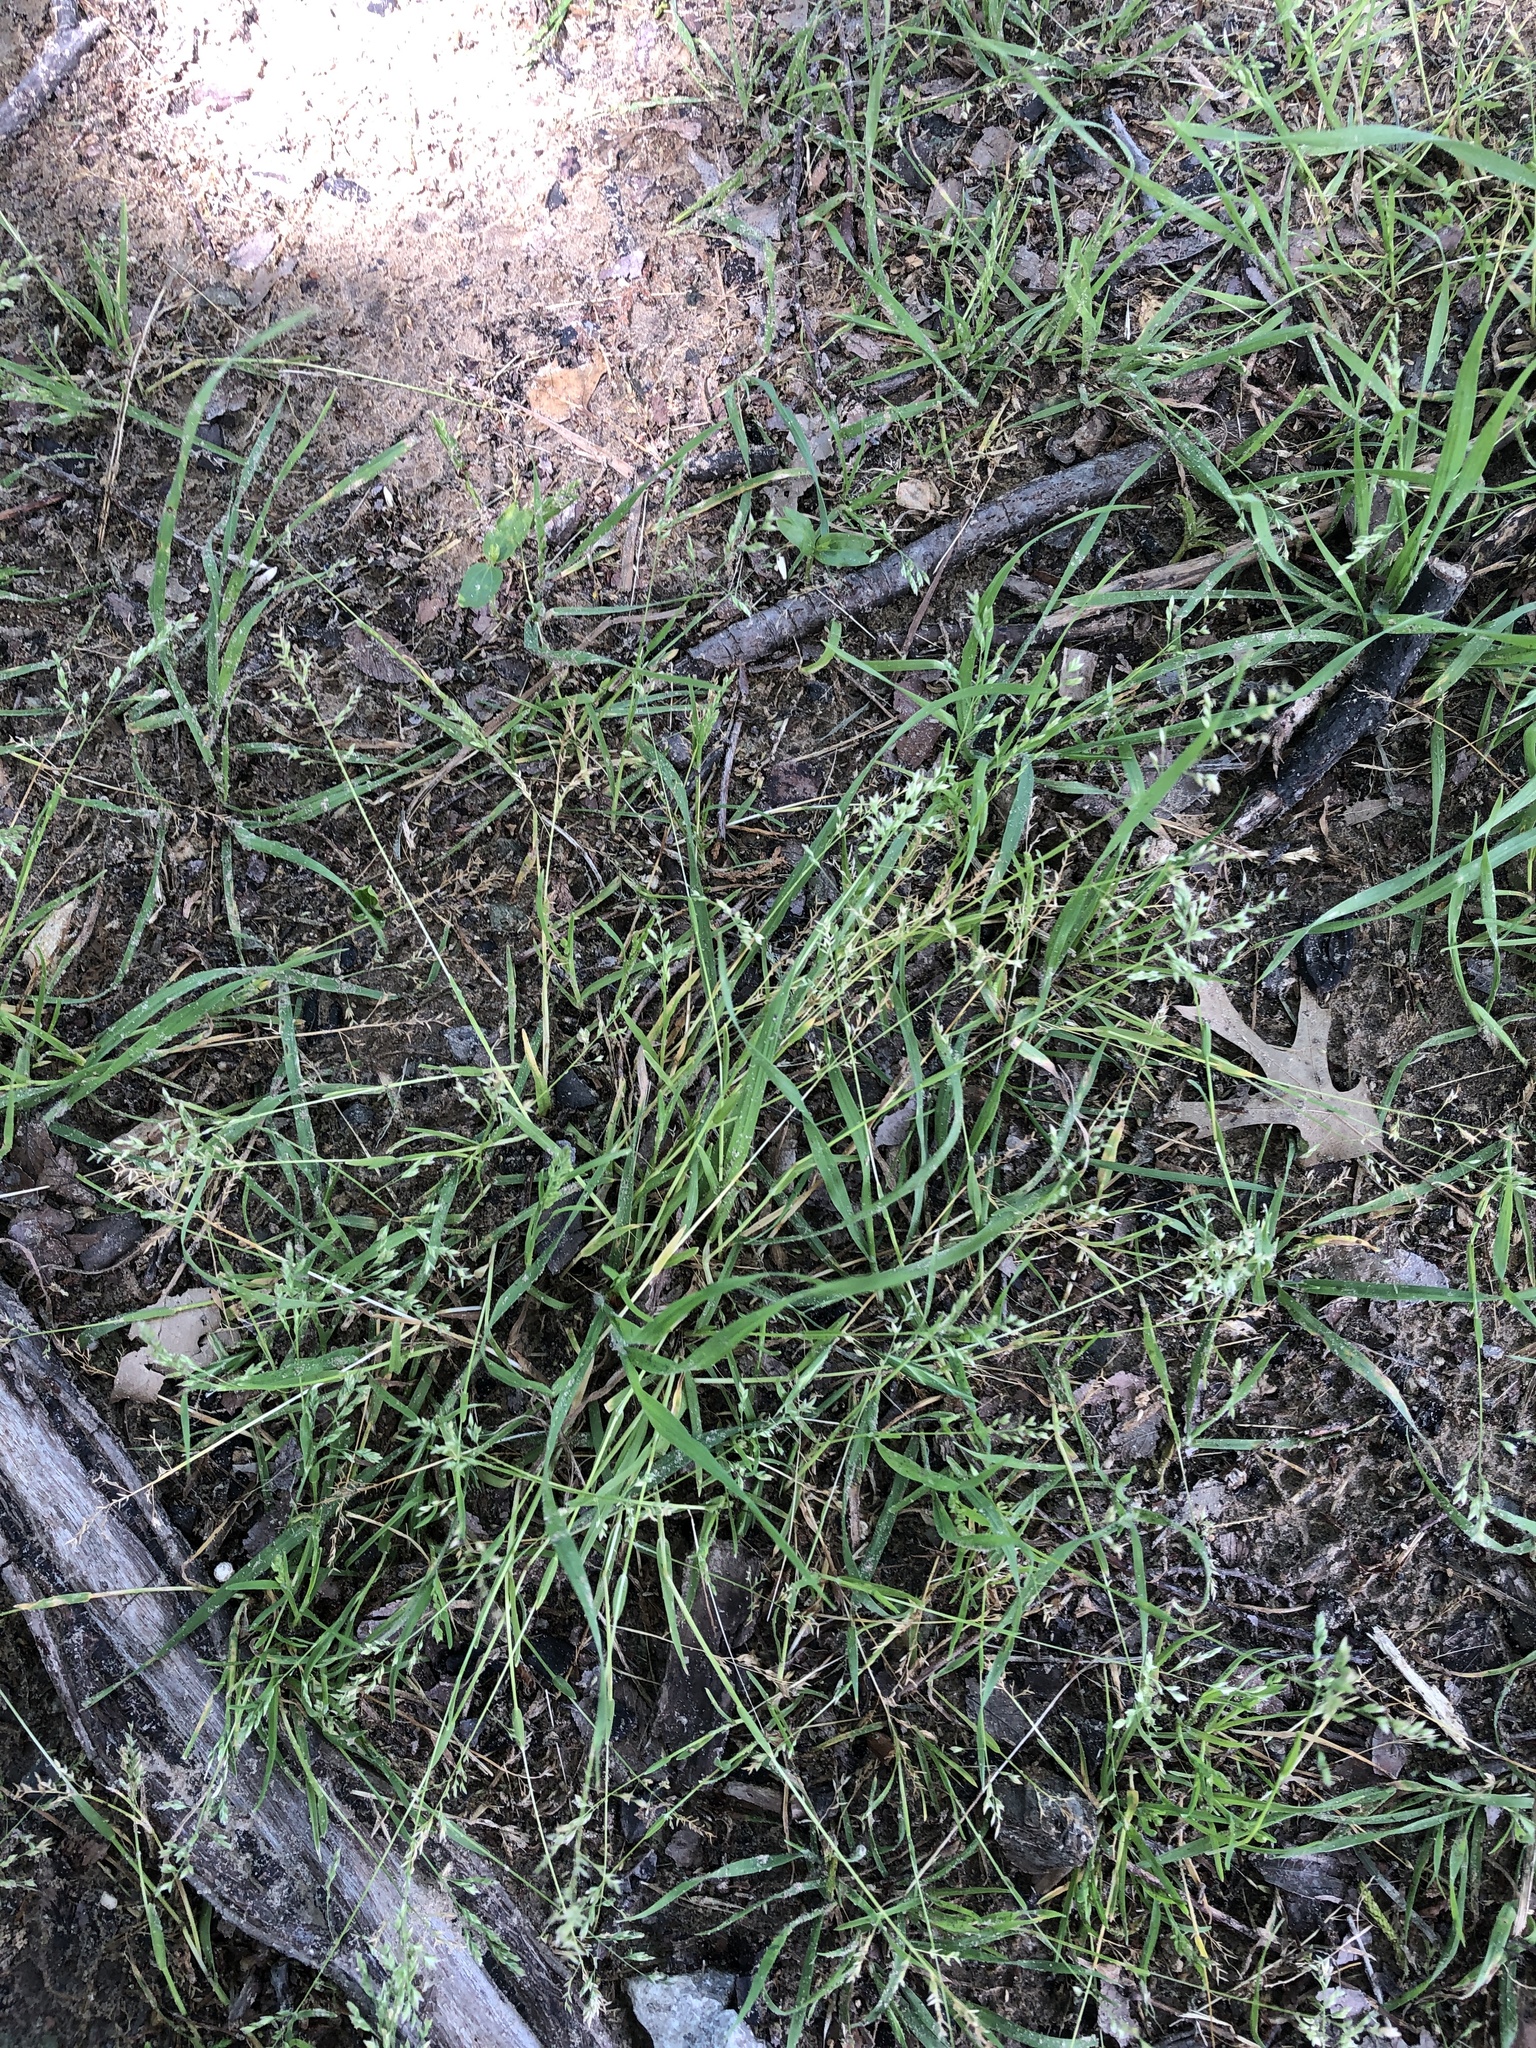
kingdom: Plantae
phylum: Tracheophyta
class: Liliopsida
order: Poales
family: Poaceae
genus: Poa
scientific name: Poa annua
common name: Annual bluegrass
